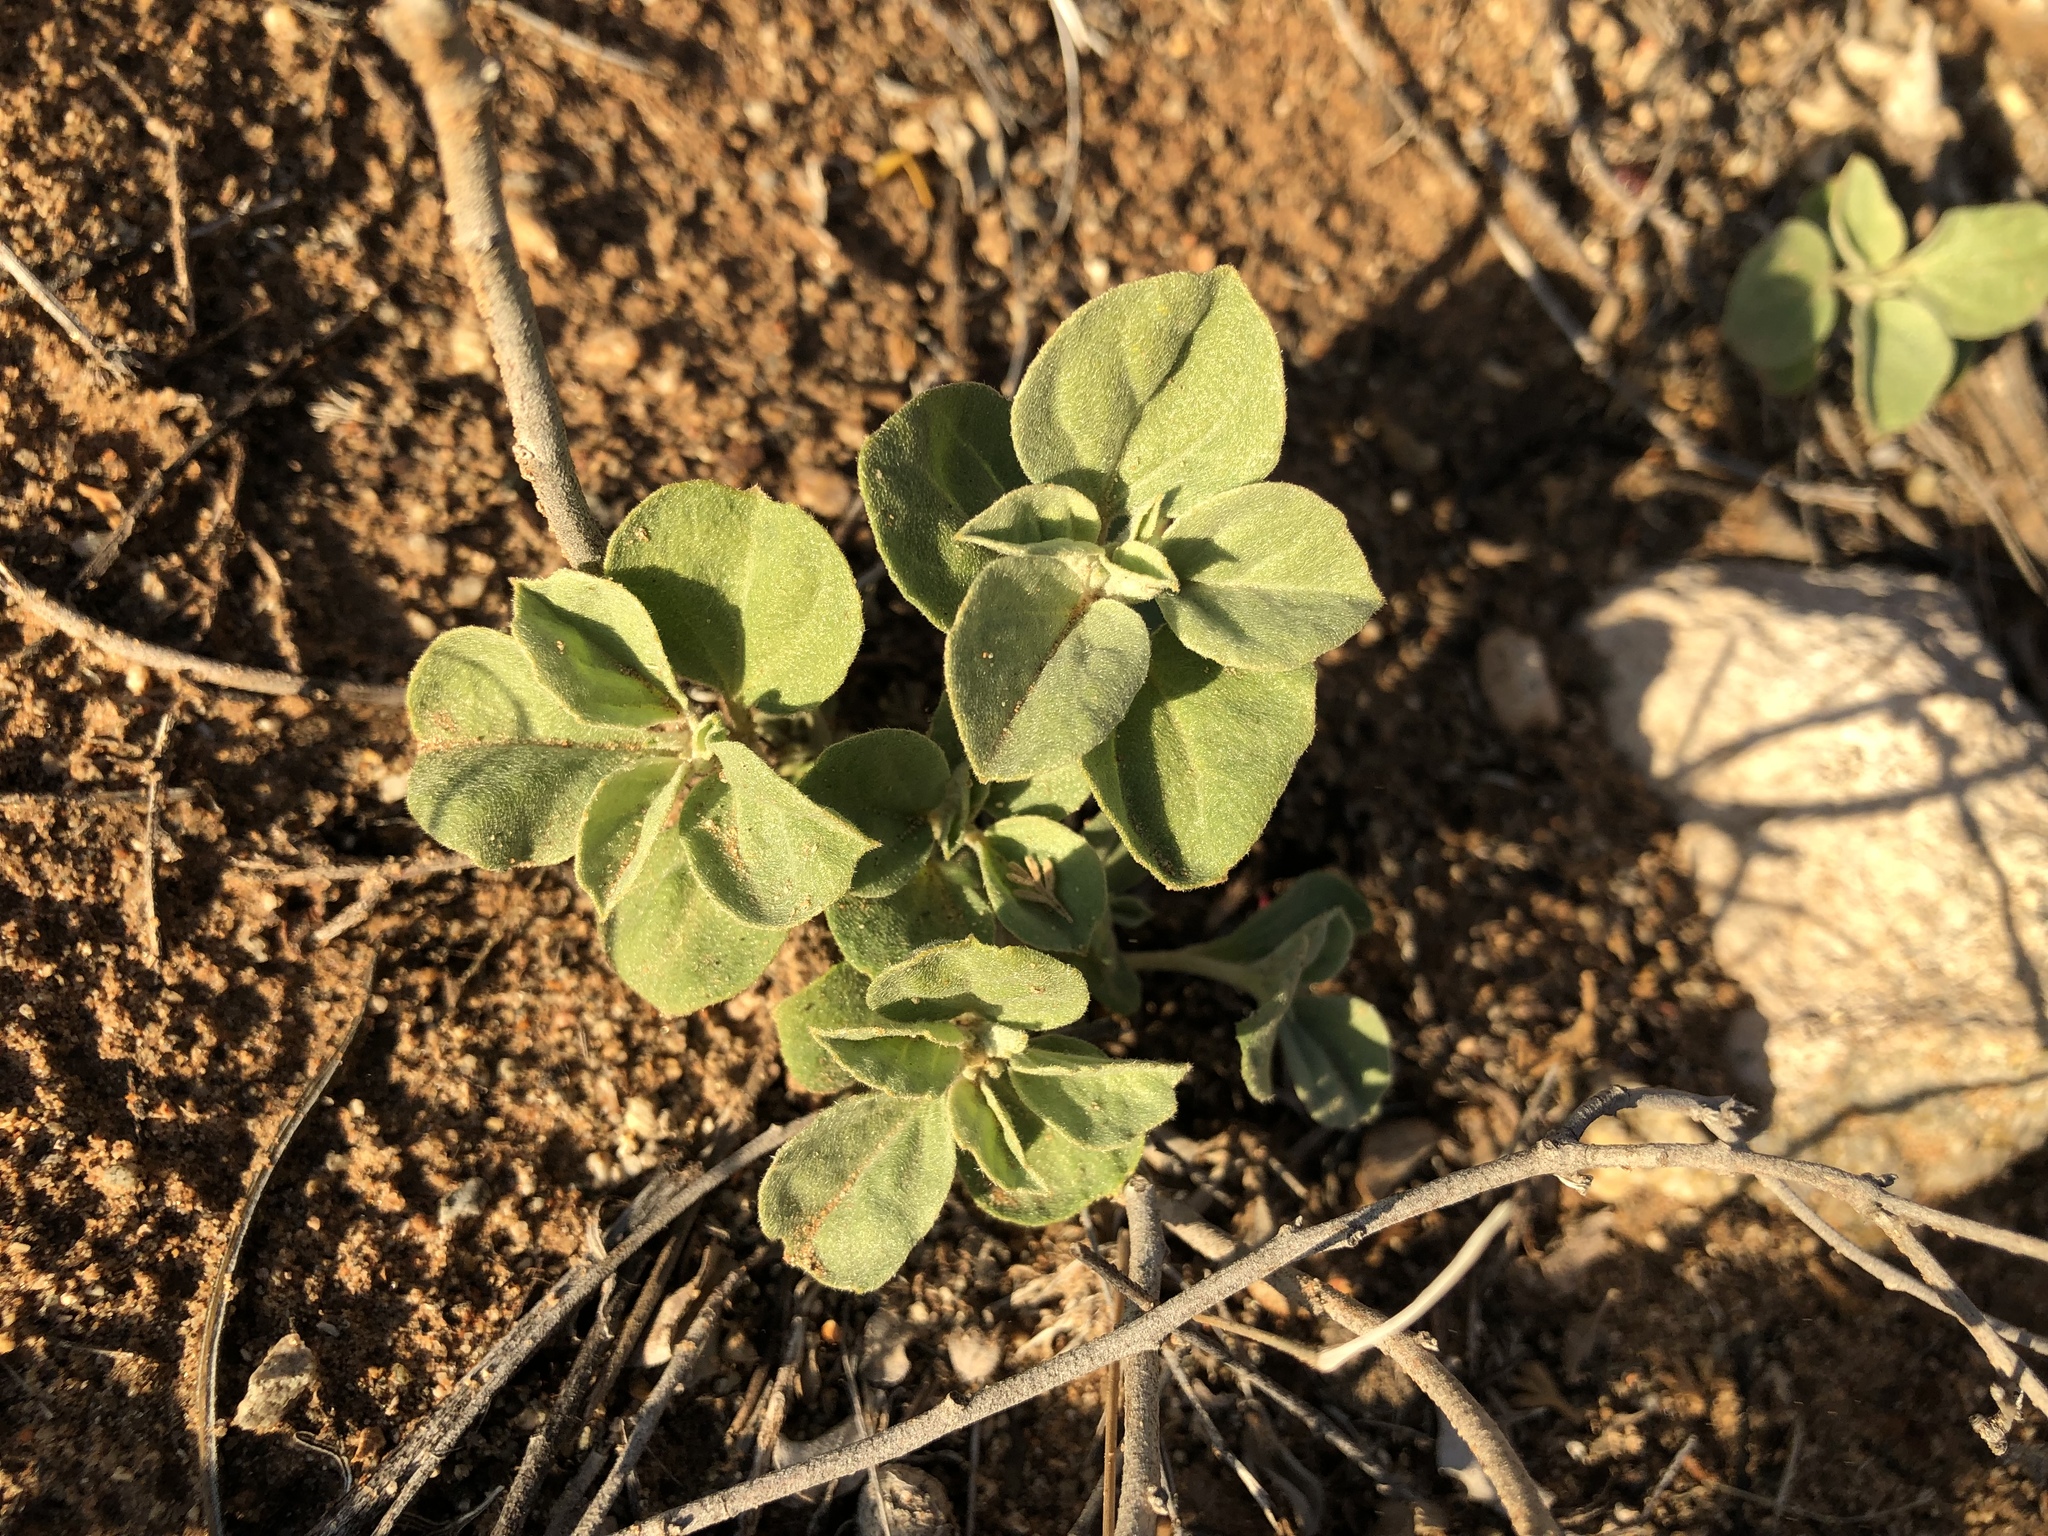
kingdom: Plantae
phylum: Tracheophyta
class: Magnoliopsida
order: Malpighiales
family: Euphorbiaceae
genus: Croton
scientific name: Croton pottsii
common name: Leatherweed
